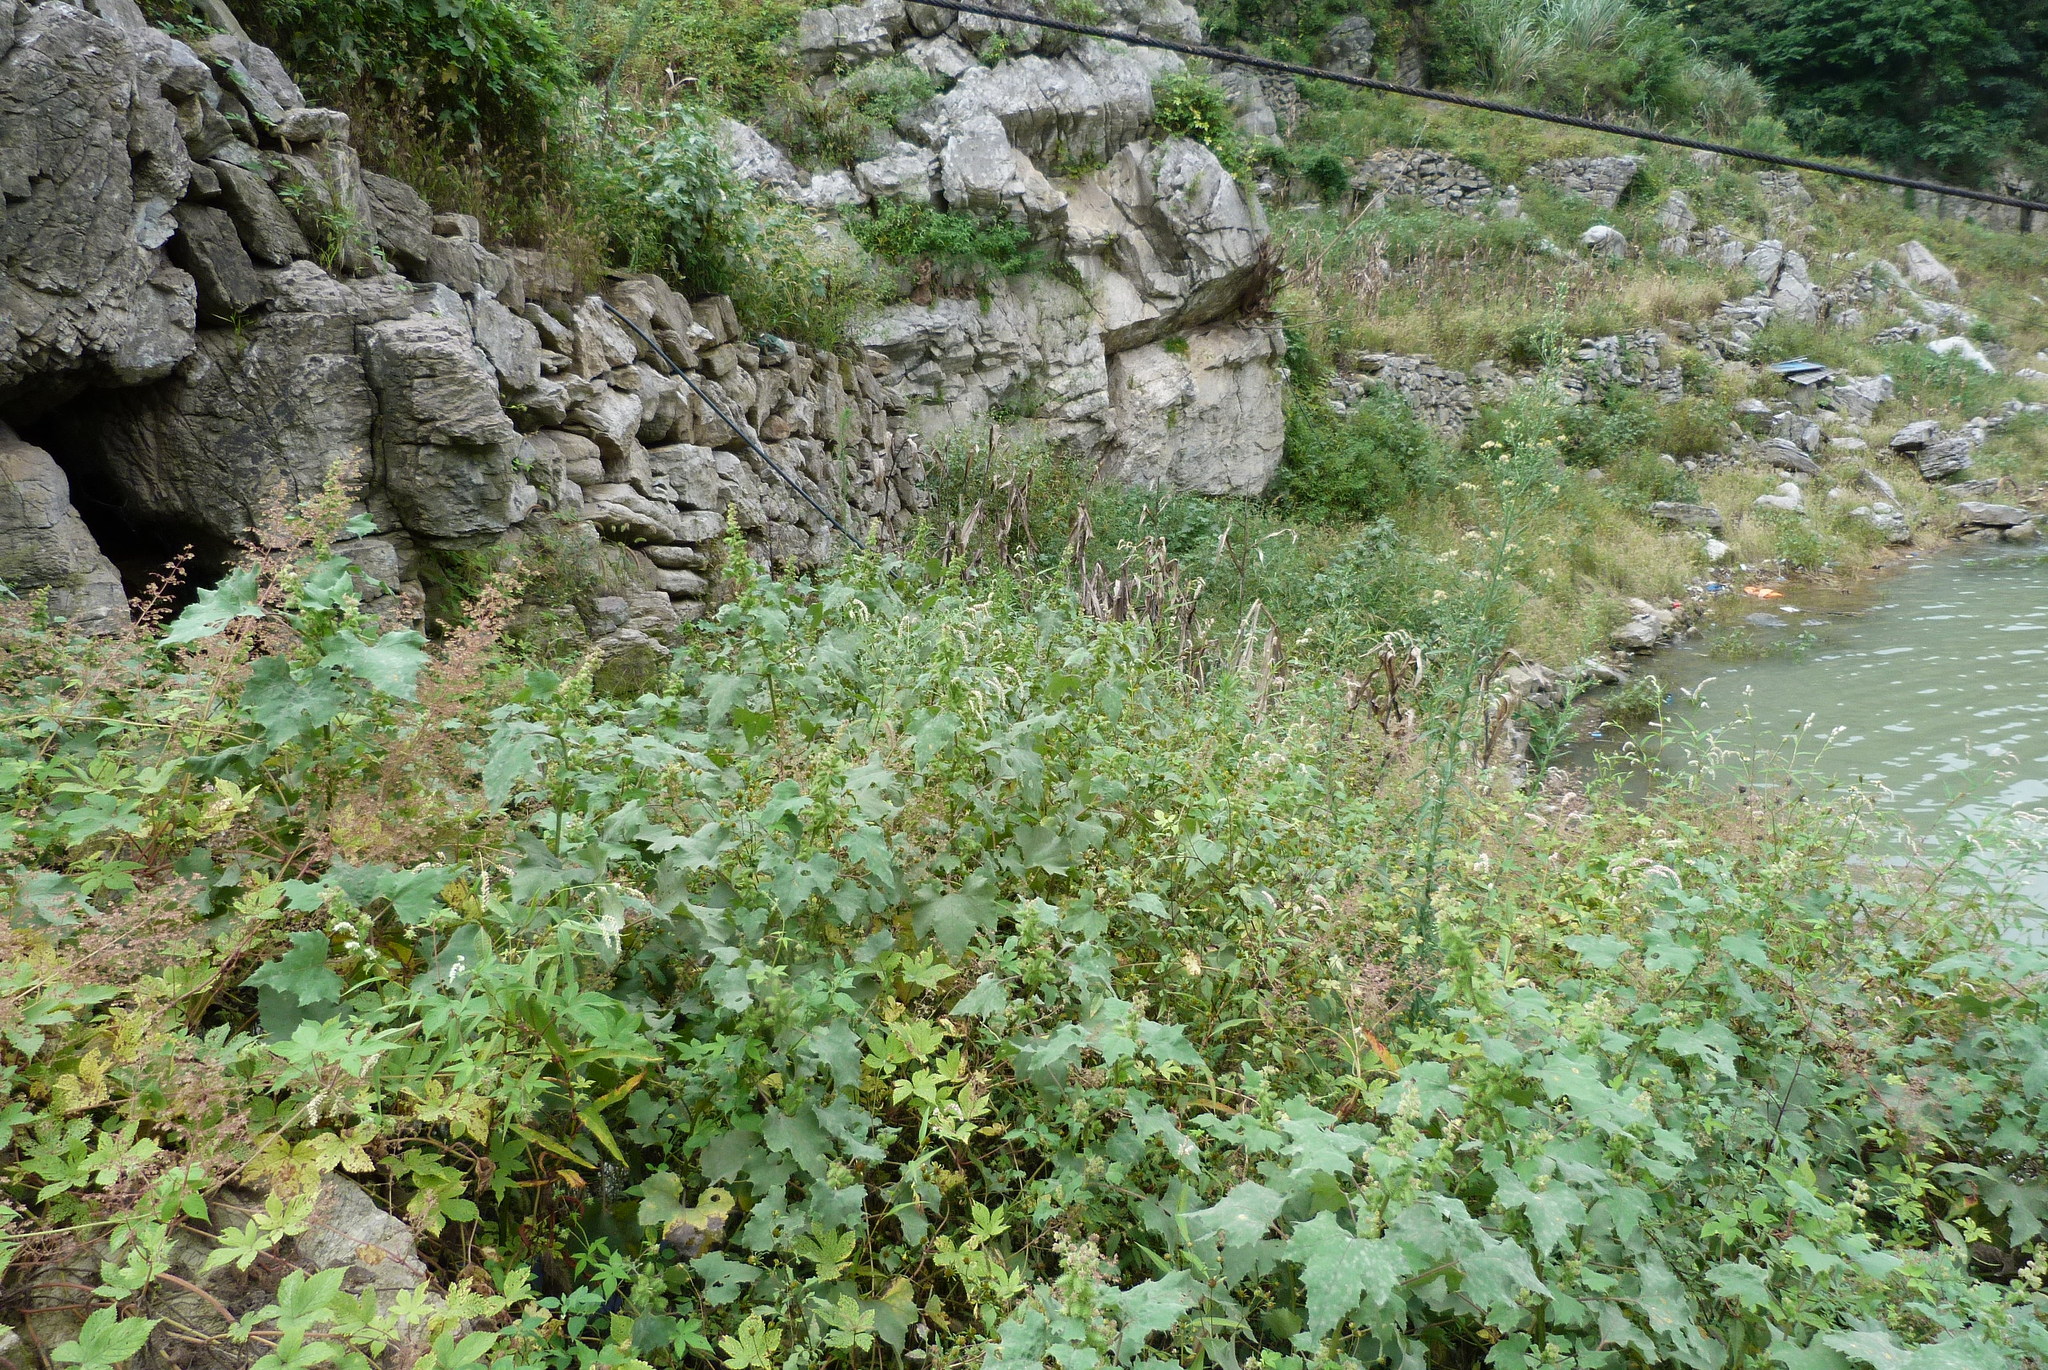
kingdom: Plantae
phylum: Tracheophyta
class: Magnoliopsida
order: Asterales
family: Asteraceae
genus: Xanthium
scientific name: Xanthium strumarium
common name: Rough cocklebur
